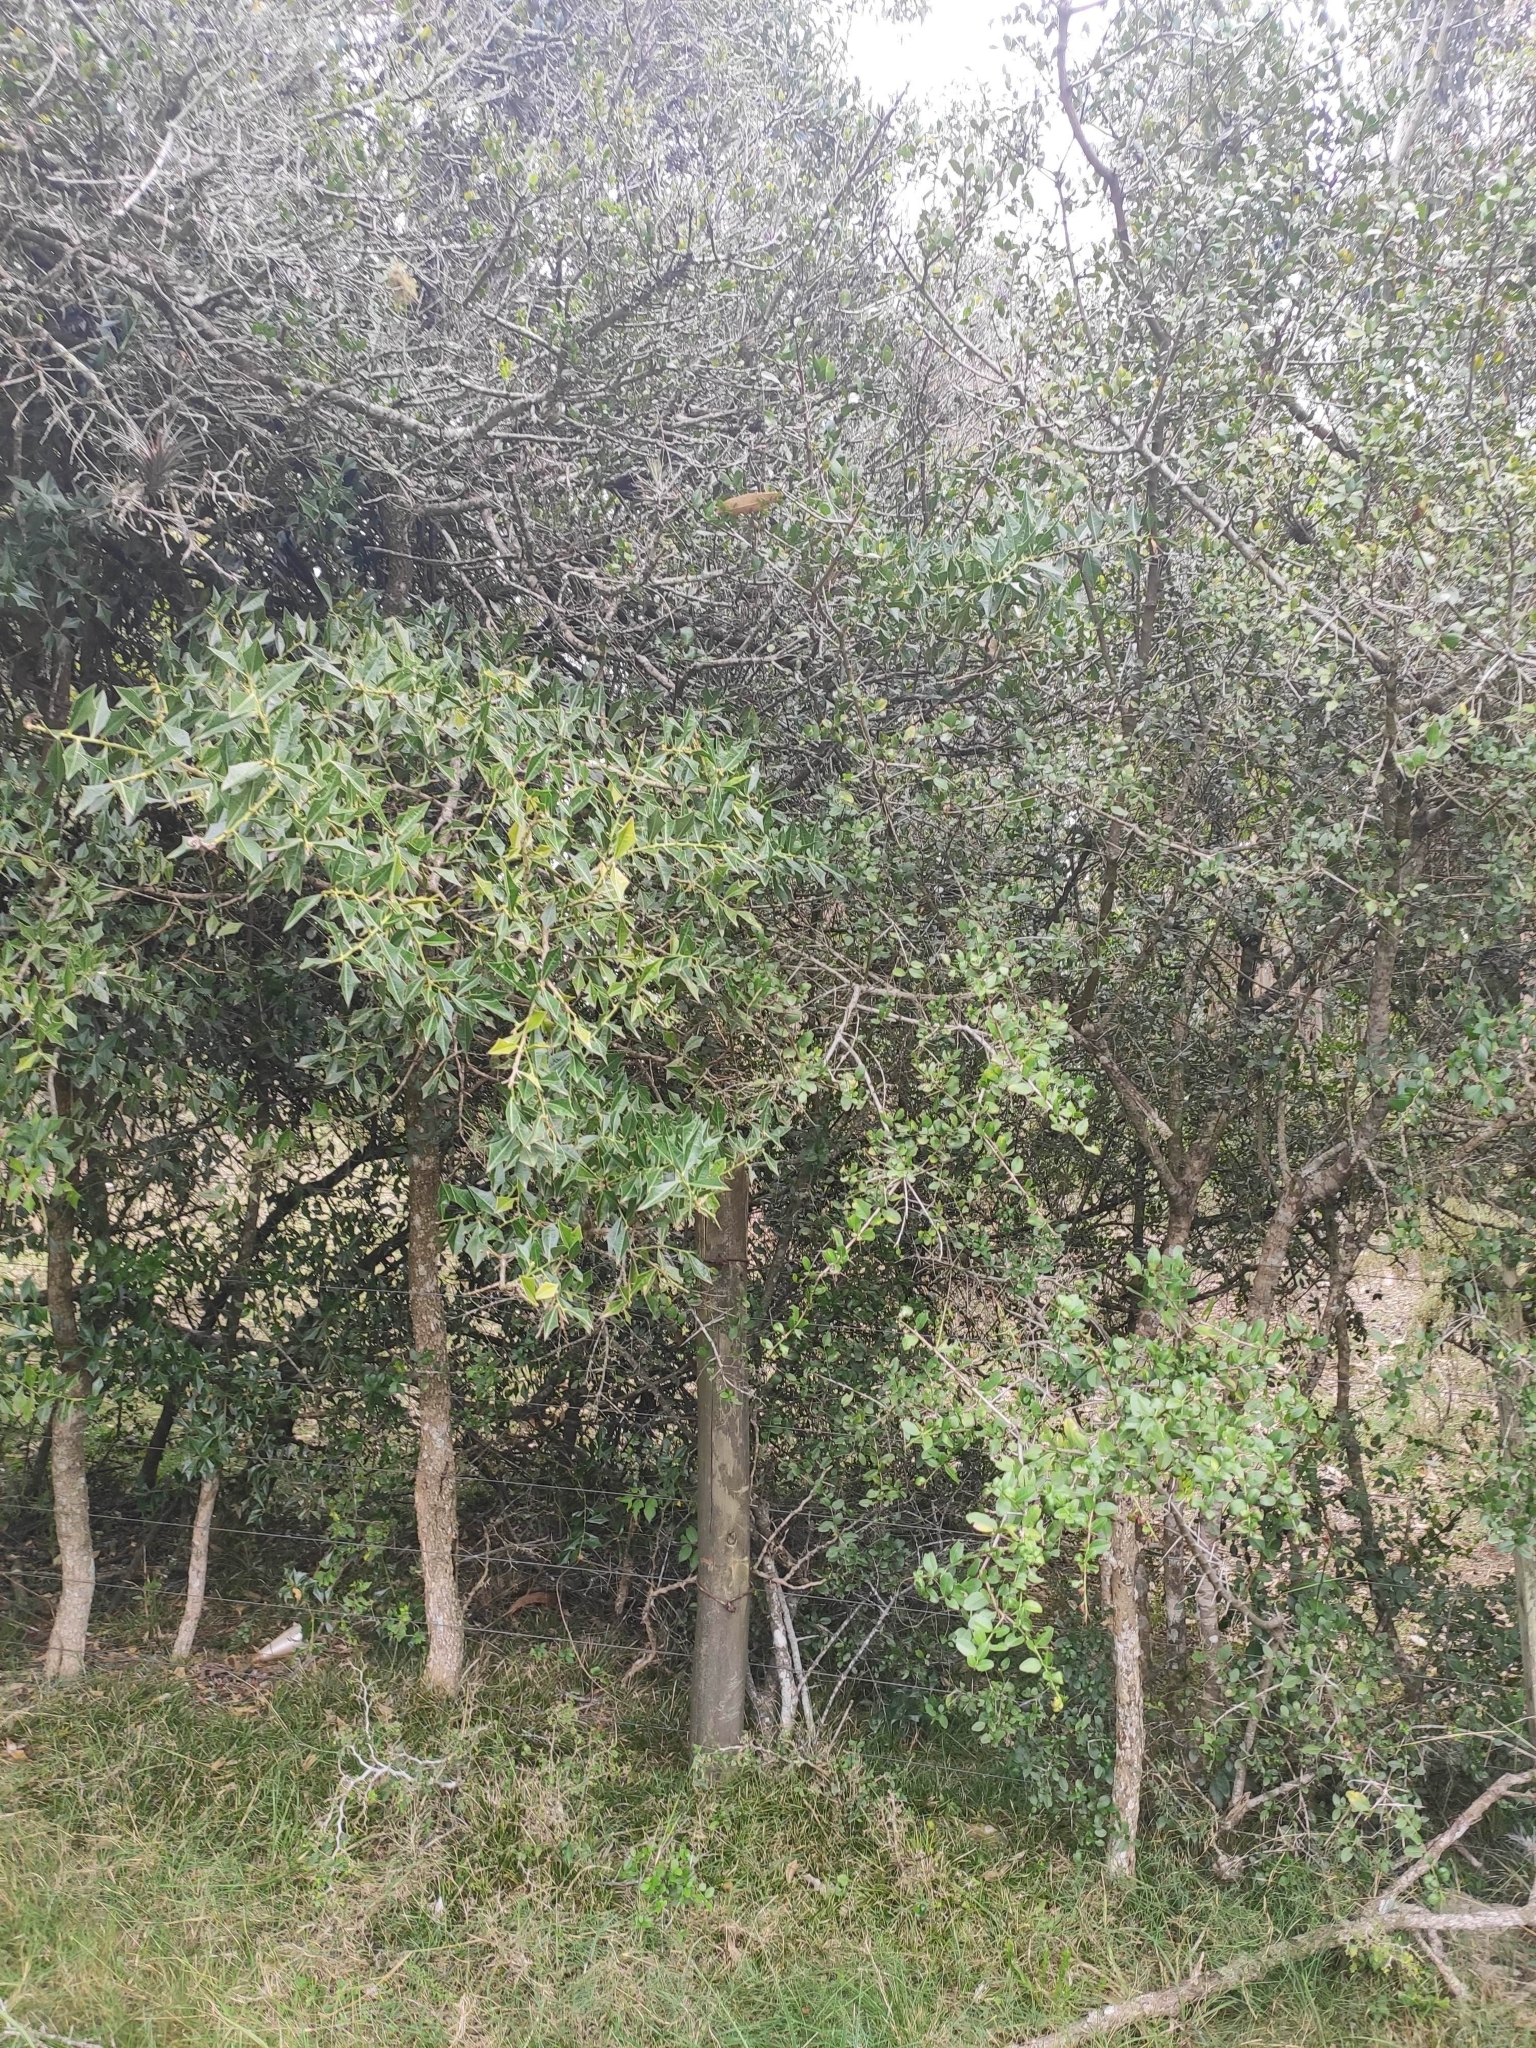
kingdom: Plantae
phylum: Tracheophyta
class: Magnoliopsida
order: Santalales
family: Cervantesiaceae
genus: Jodina
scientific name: Jodina rhombifolia
